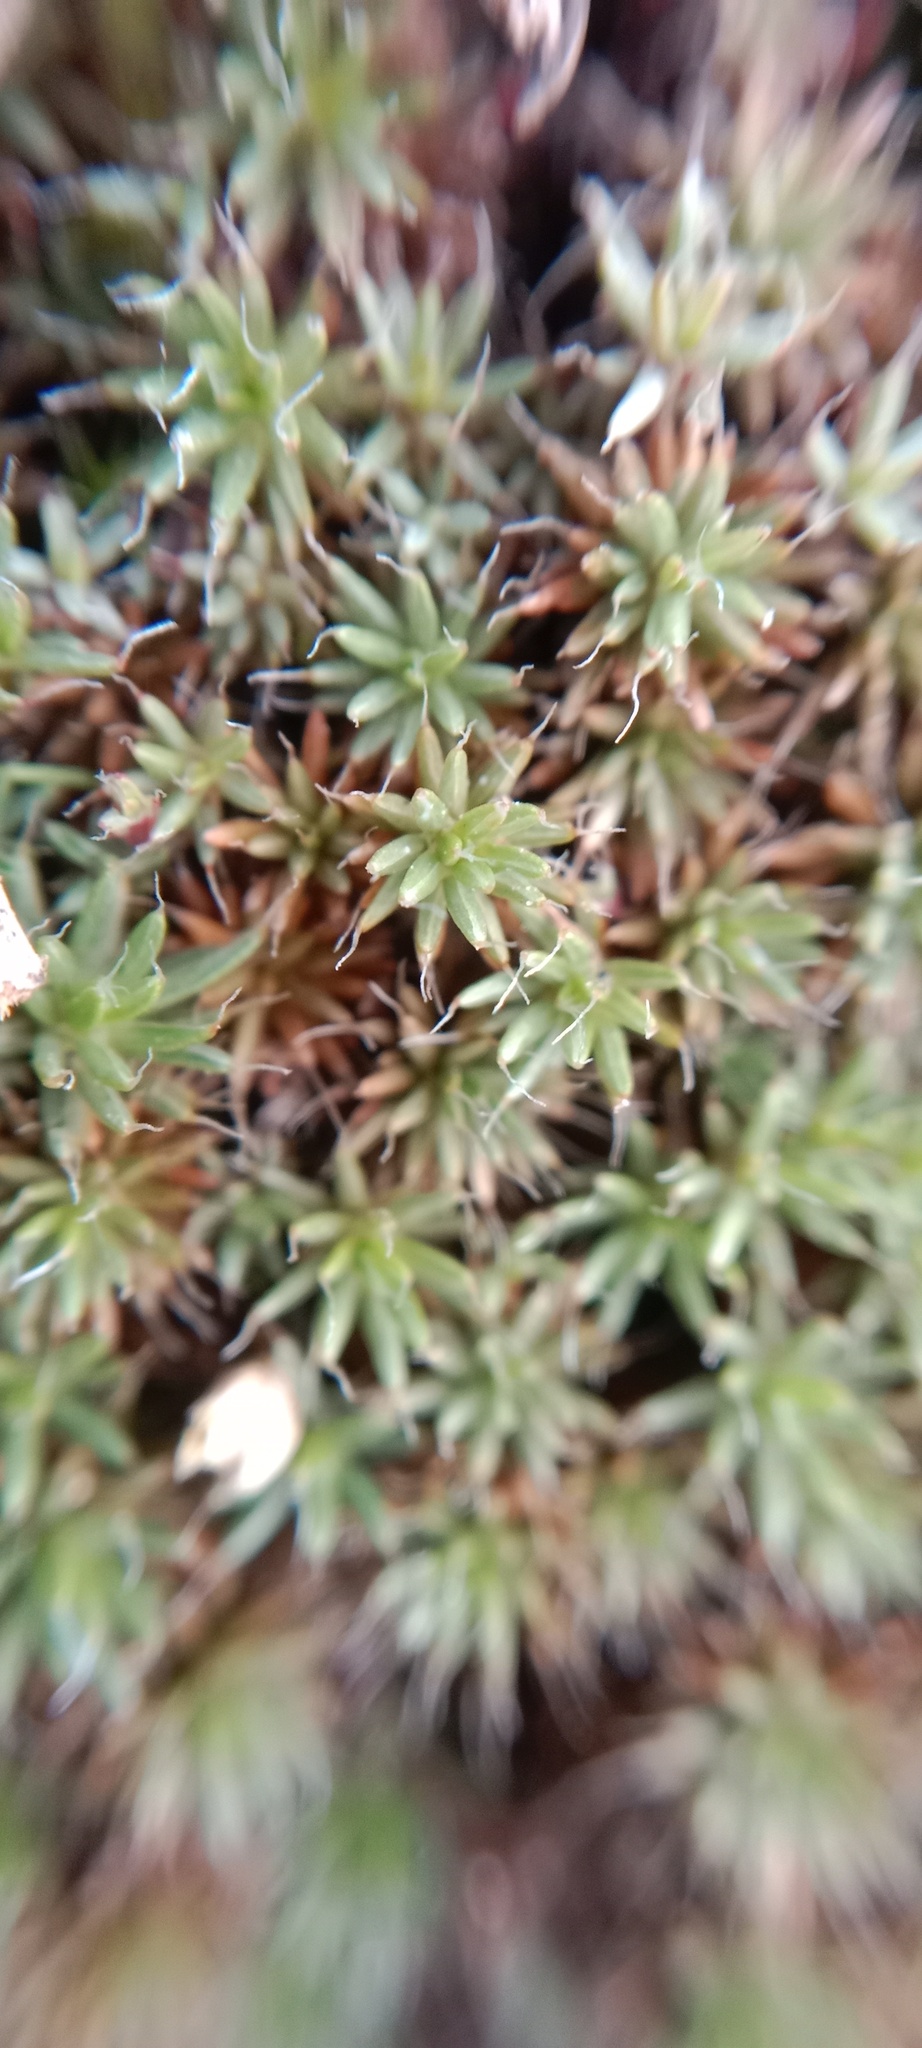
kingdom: Plantae
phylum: Bryophyta
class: Polytrichopsida
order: Polytrichales
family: Polytrichaceae
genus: Polytrichum
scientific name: Polytrichum piliferum
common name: Bristly haircap
